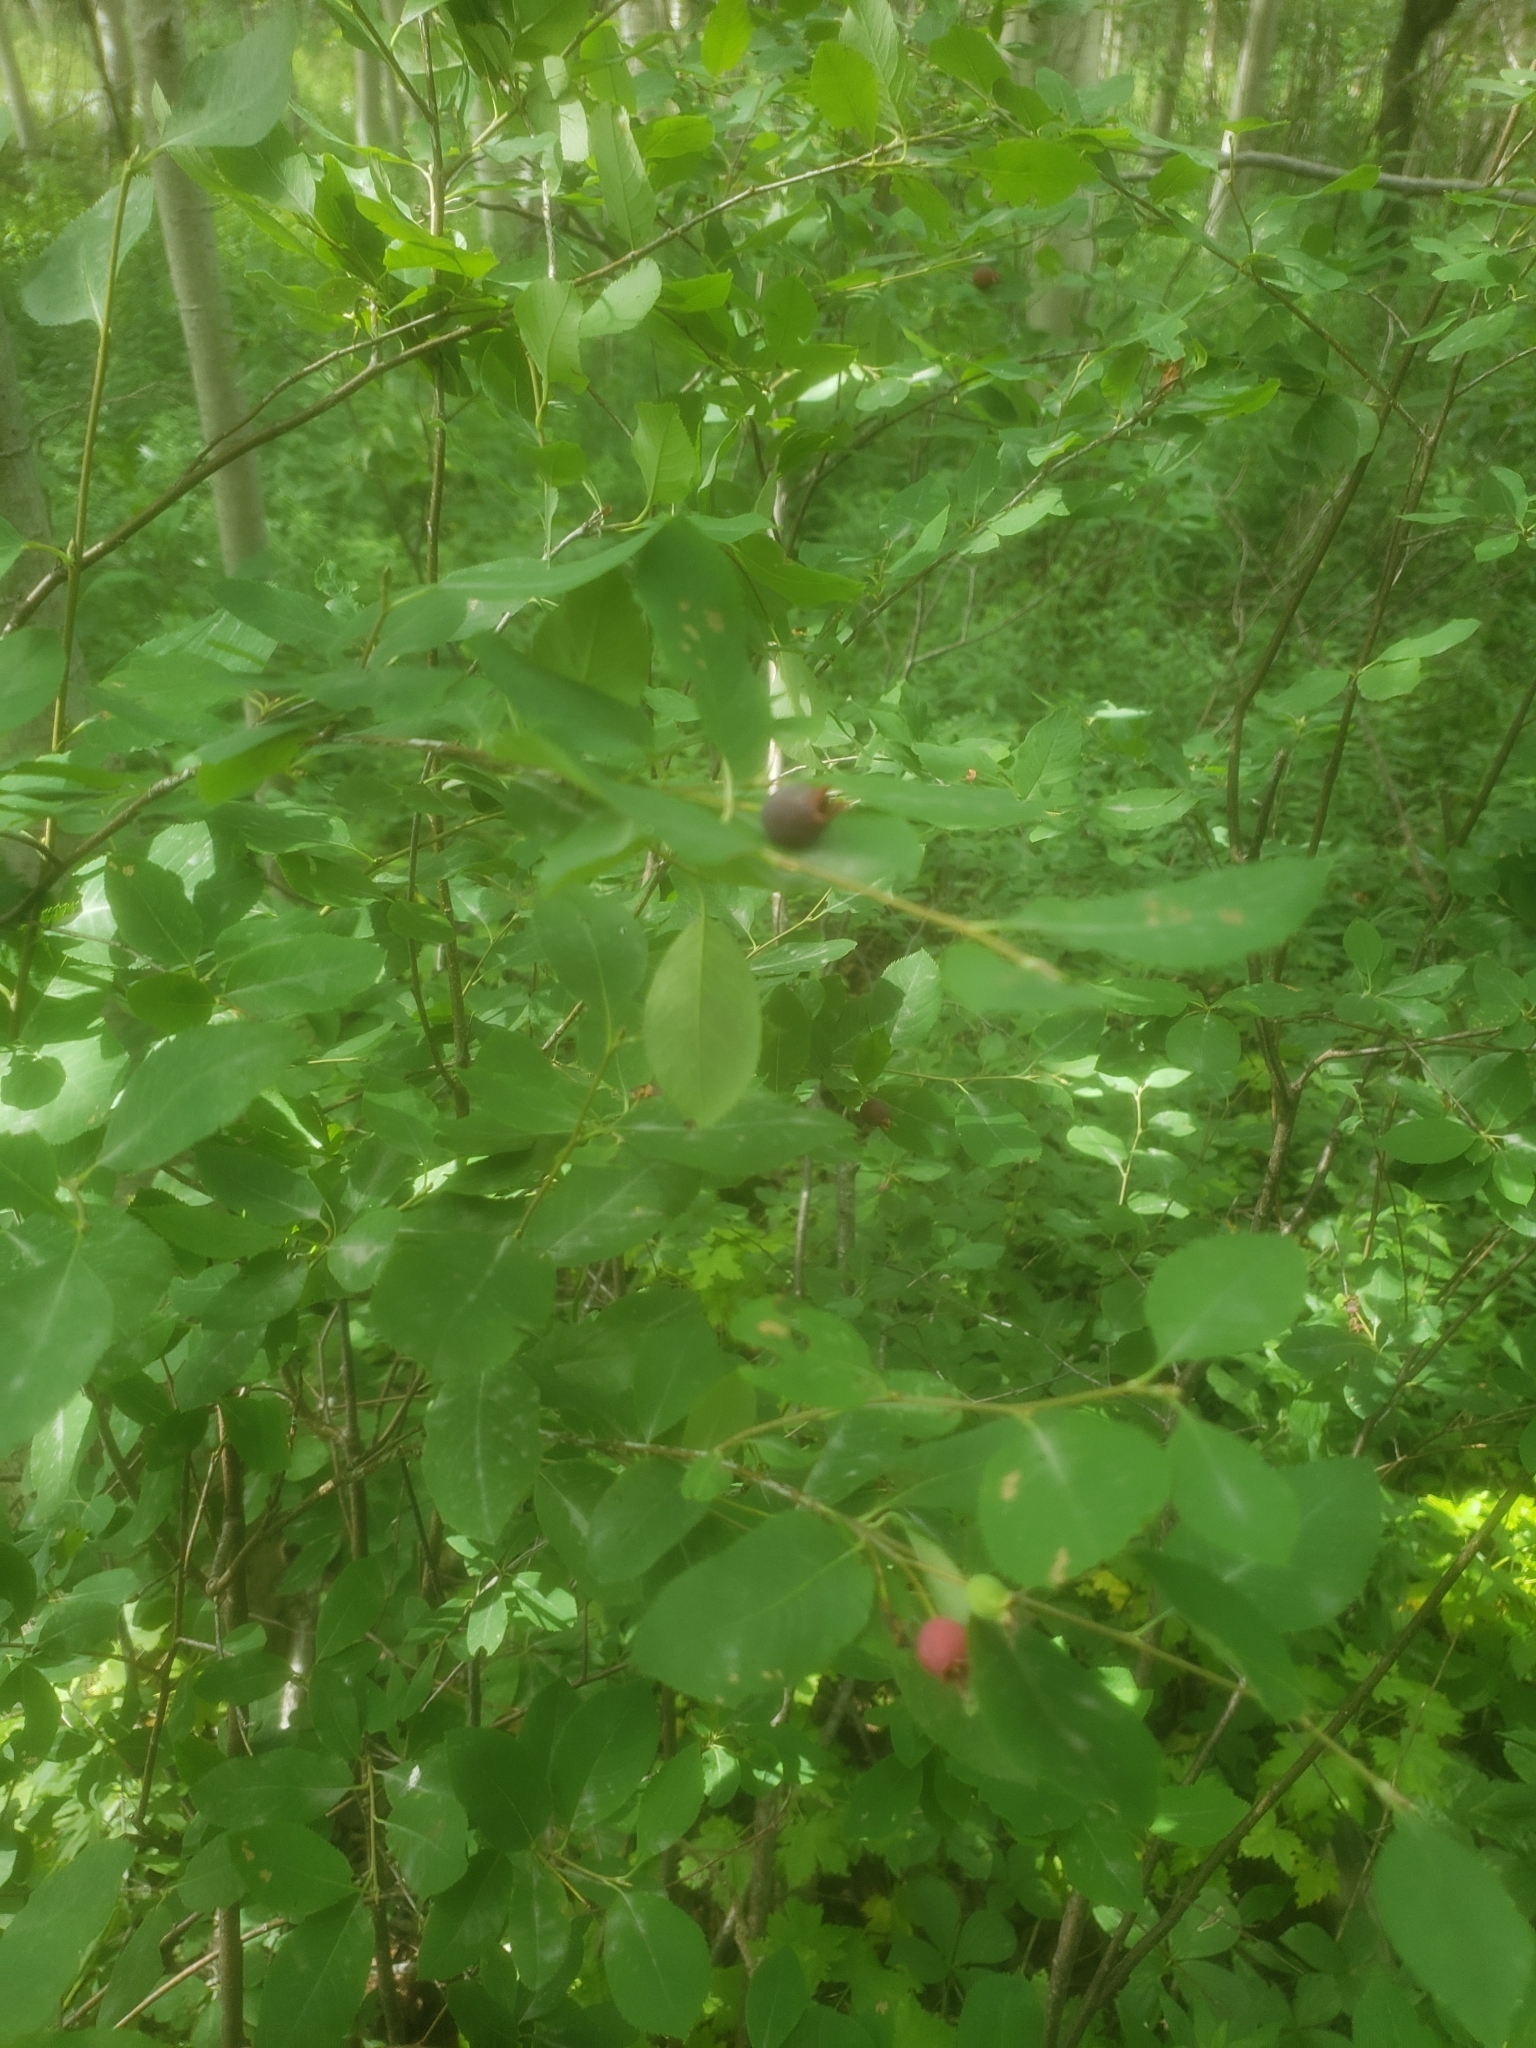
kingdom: Plantae
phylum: Tracheophyta
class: Magnoliopsida
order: Rosales
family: Rosaceae
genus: Amelanchier
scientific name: Amelanchier bartramiana
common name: Mountain serviceberry
